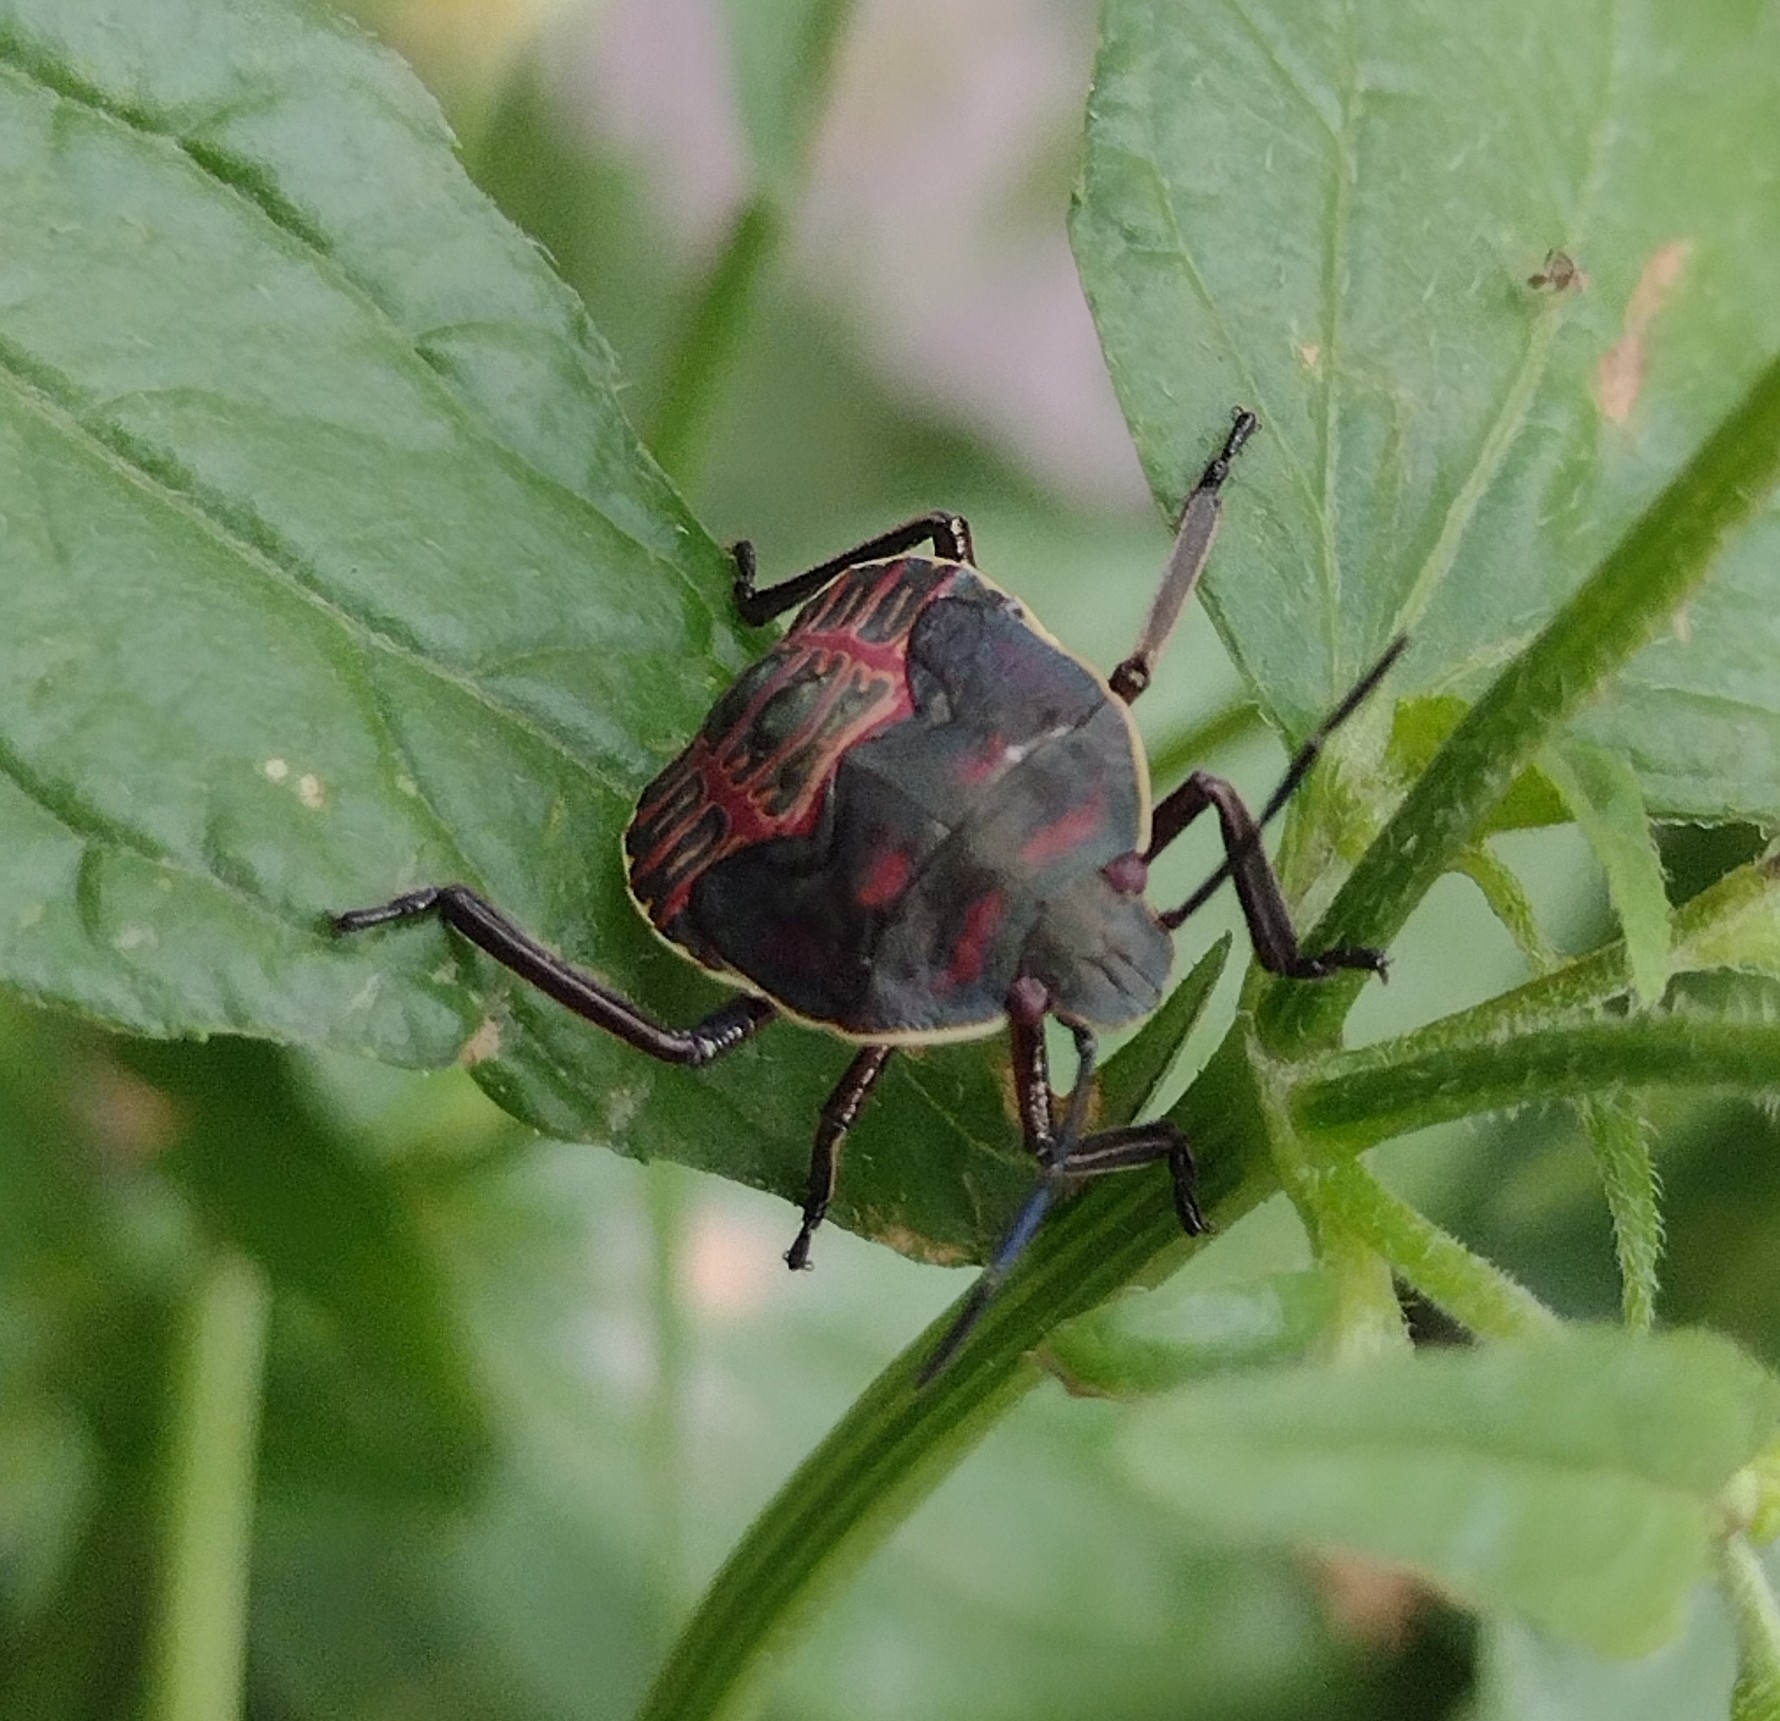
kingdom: Animalia
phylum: Arthropoda
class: Insecta
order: Hemiptera
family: Pentatomidae
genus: Pellaea
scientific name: Pellaea stictica
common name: Stink bug
